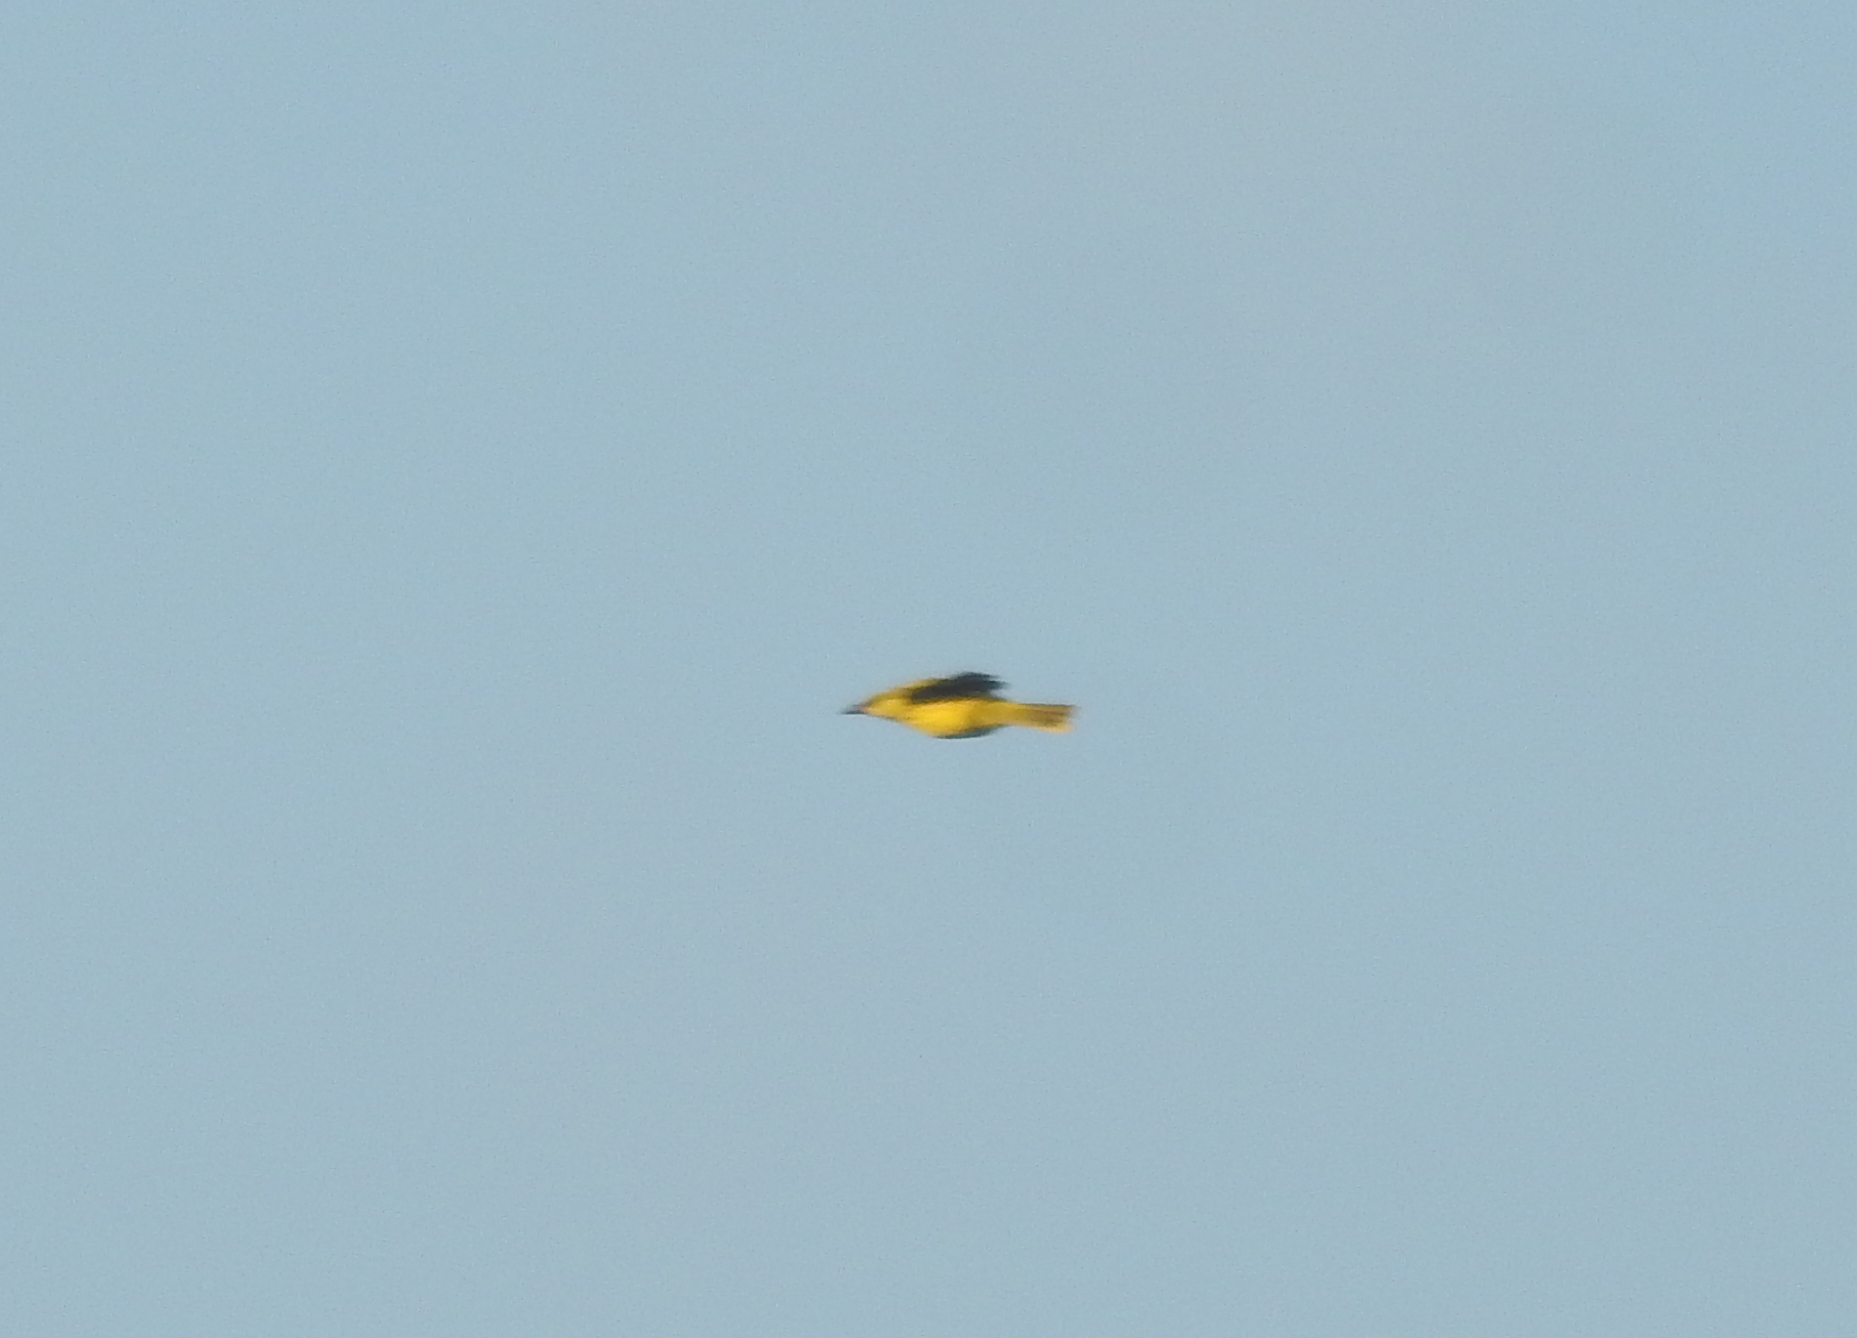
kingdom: Animalia
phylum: Chordata
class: Aves
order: Passeriformes
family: Oriolidae
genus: Oriolus
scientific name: Oriolus chinensis
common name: Black-naped oriole
